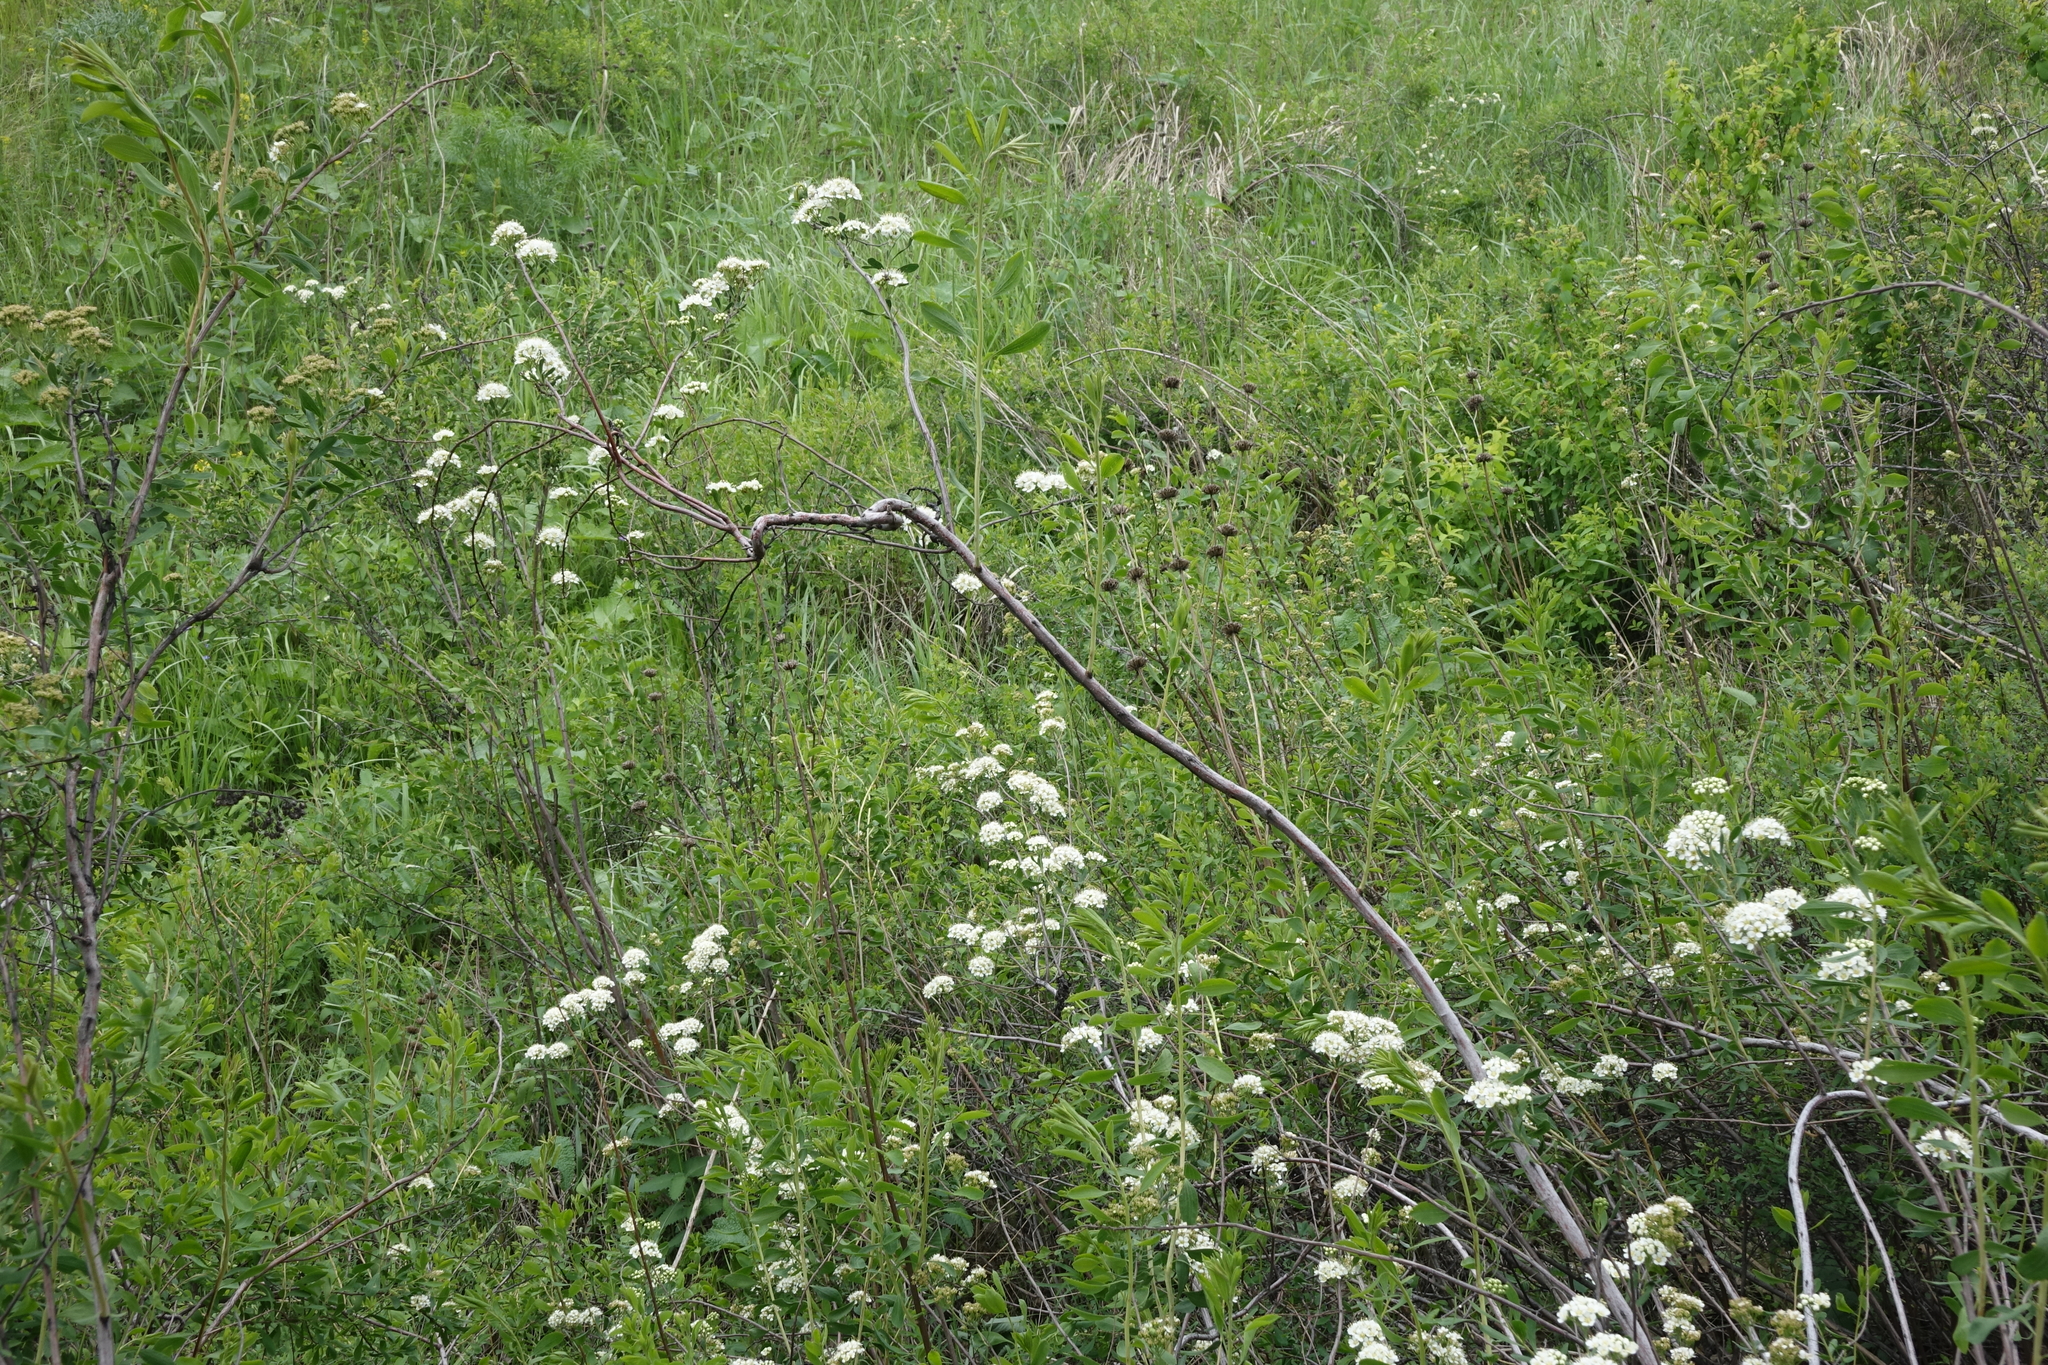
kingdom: Plantae
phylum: Tracheophyta
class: Magnoliopsida
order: Rosales
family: Rosaceae
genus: Spiraea
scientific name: Spiraea crenata
